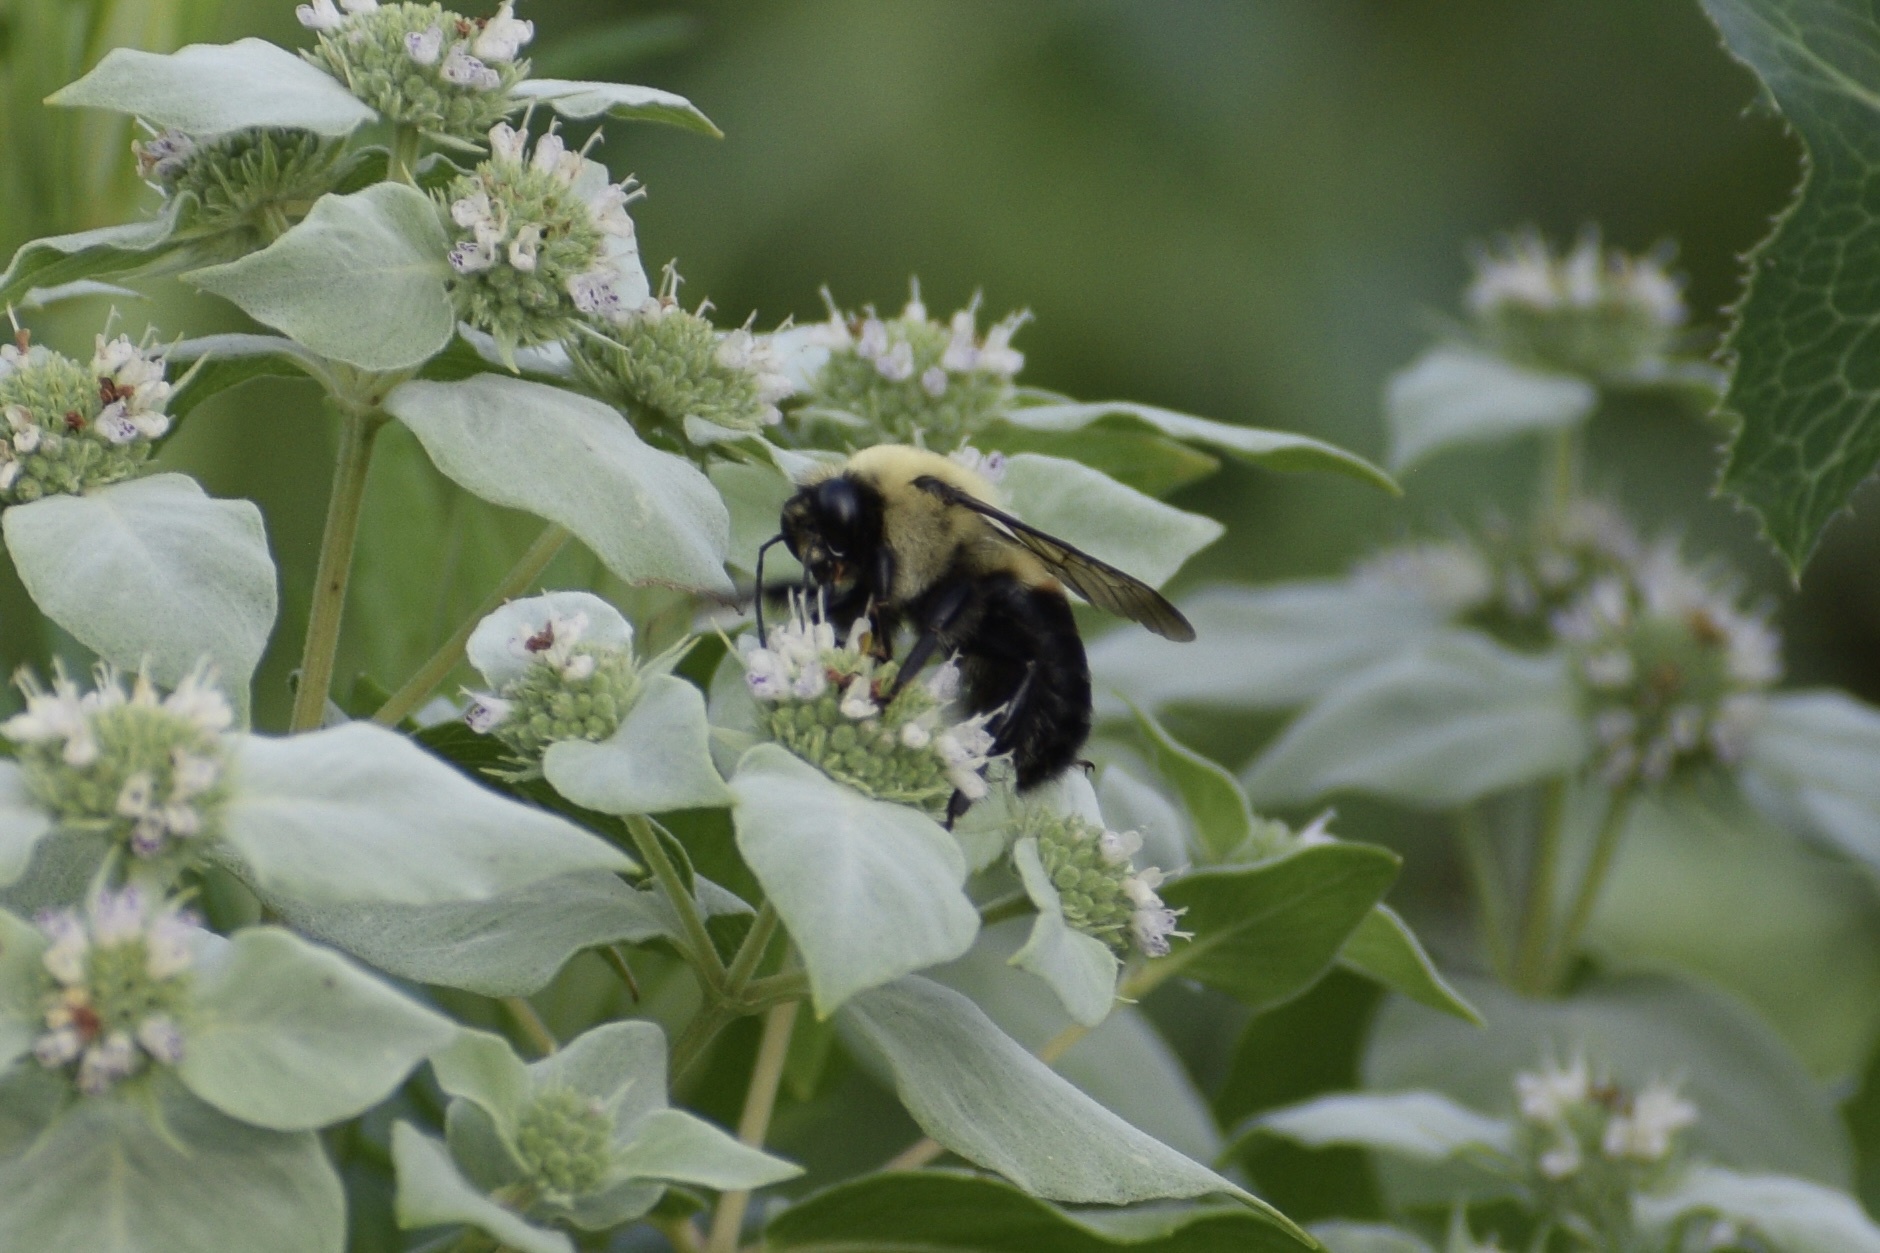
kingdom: Animalia
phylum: Arthropoda
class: Insecta
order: Hymenoptera
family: Apidae
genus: Bombus
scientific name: Bombus griseocollis
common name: Brown-belted bumble bee
